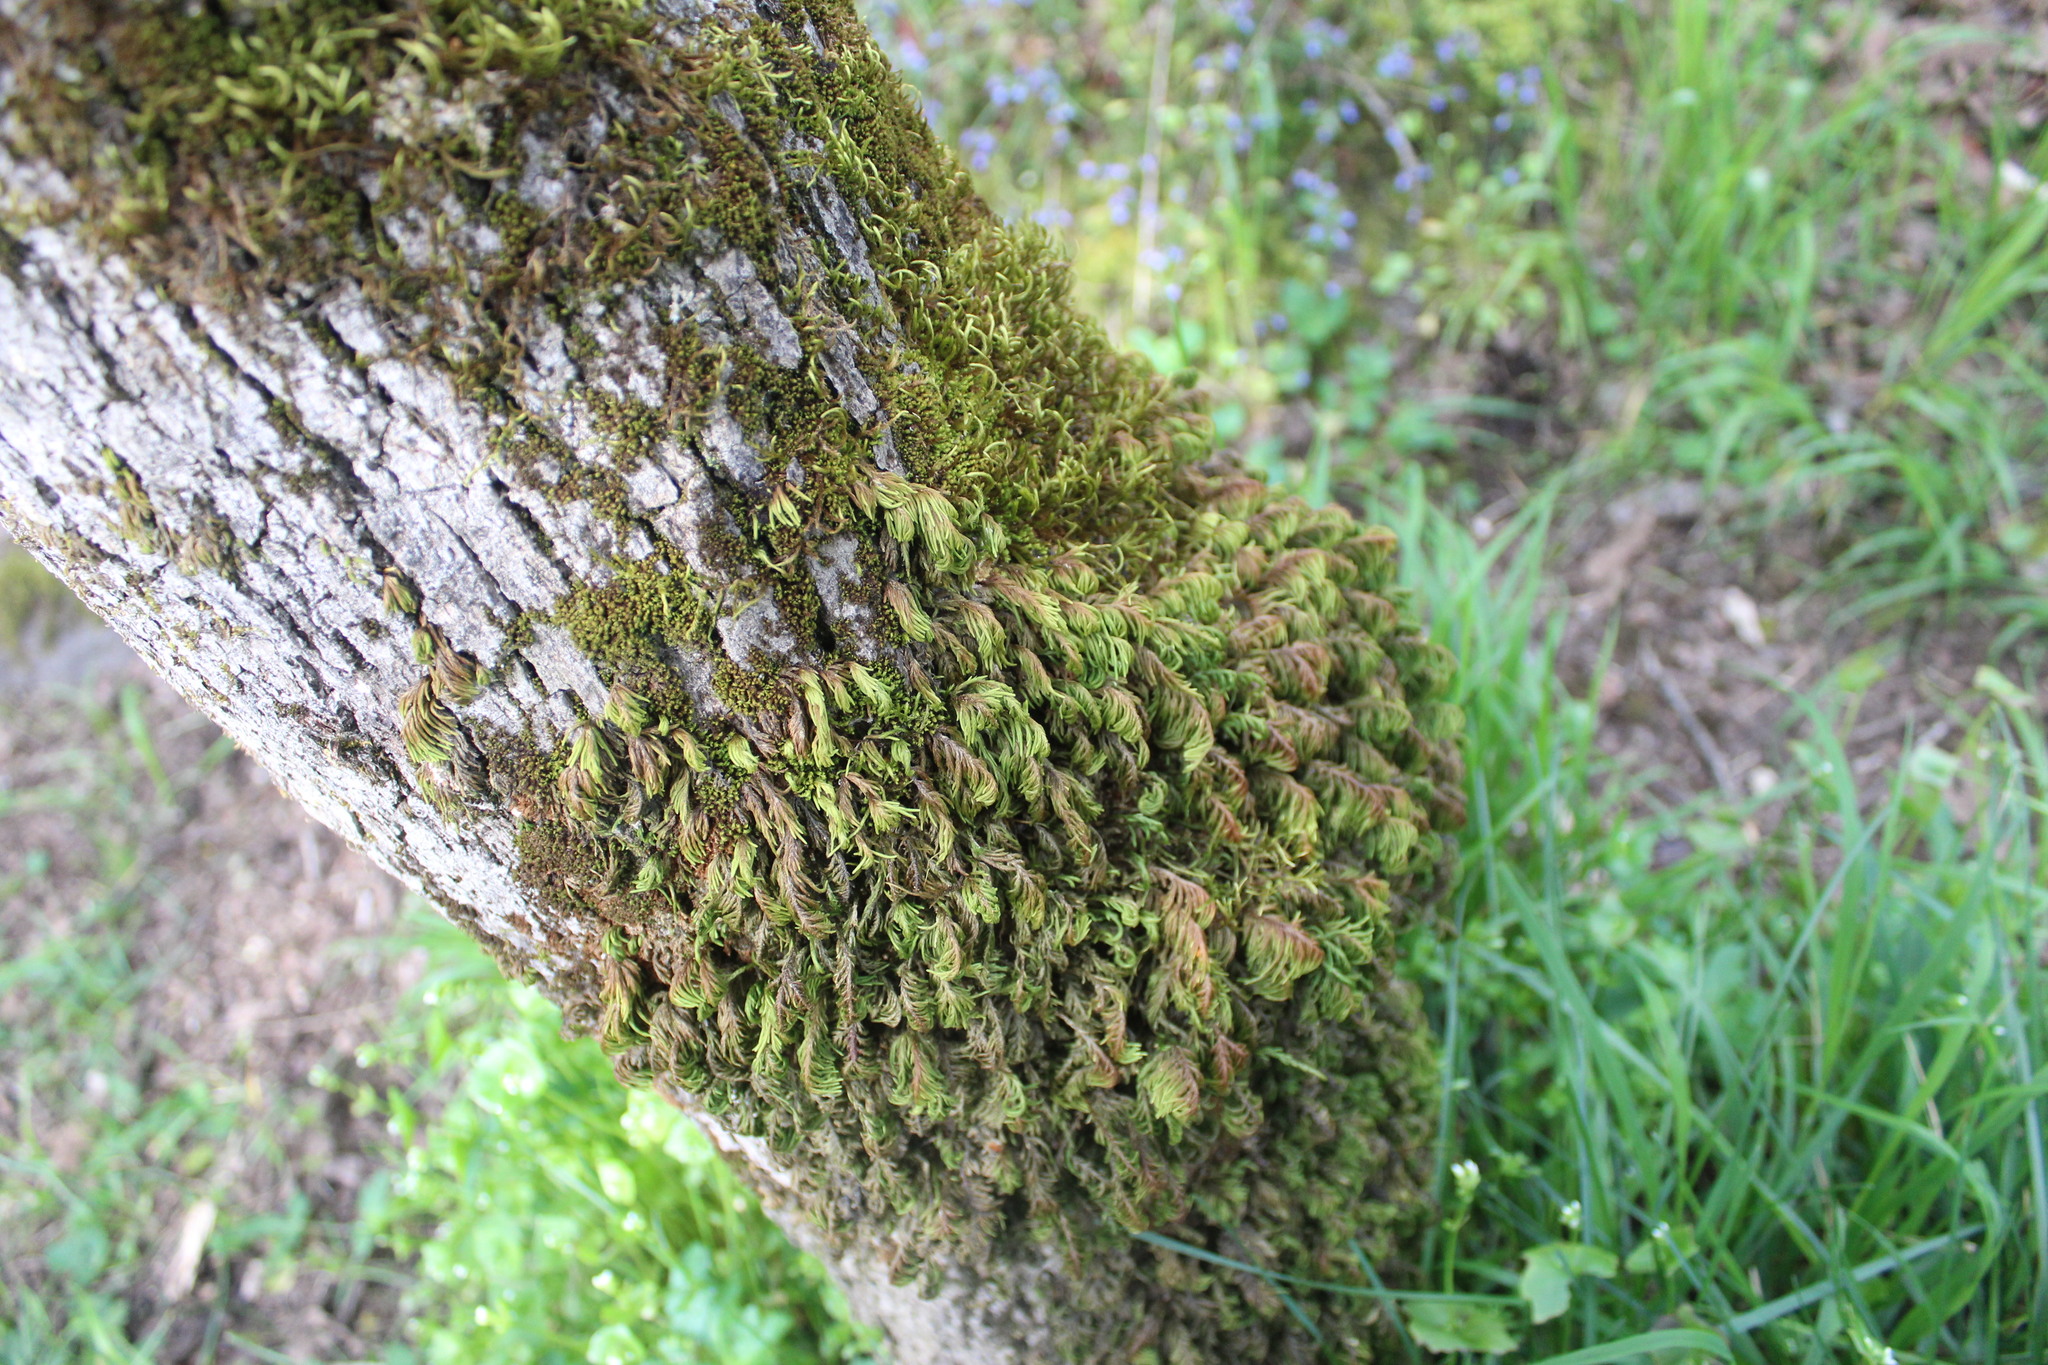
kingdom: Plantae
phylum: Bryophyta
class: Bryopsida
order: Hypnales
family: Cryphaeaceae
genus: Dendroalsia
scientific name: Dendroalsia abietina
